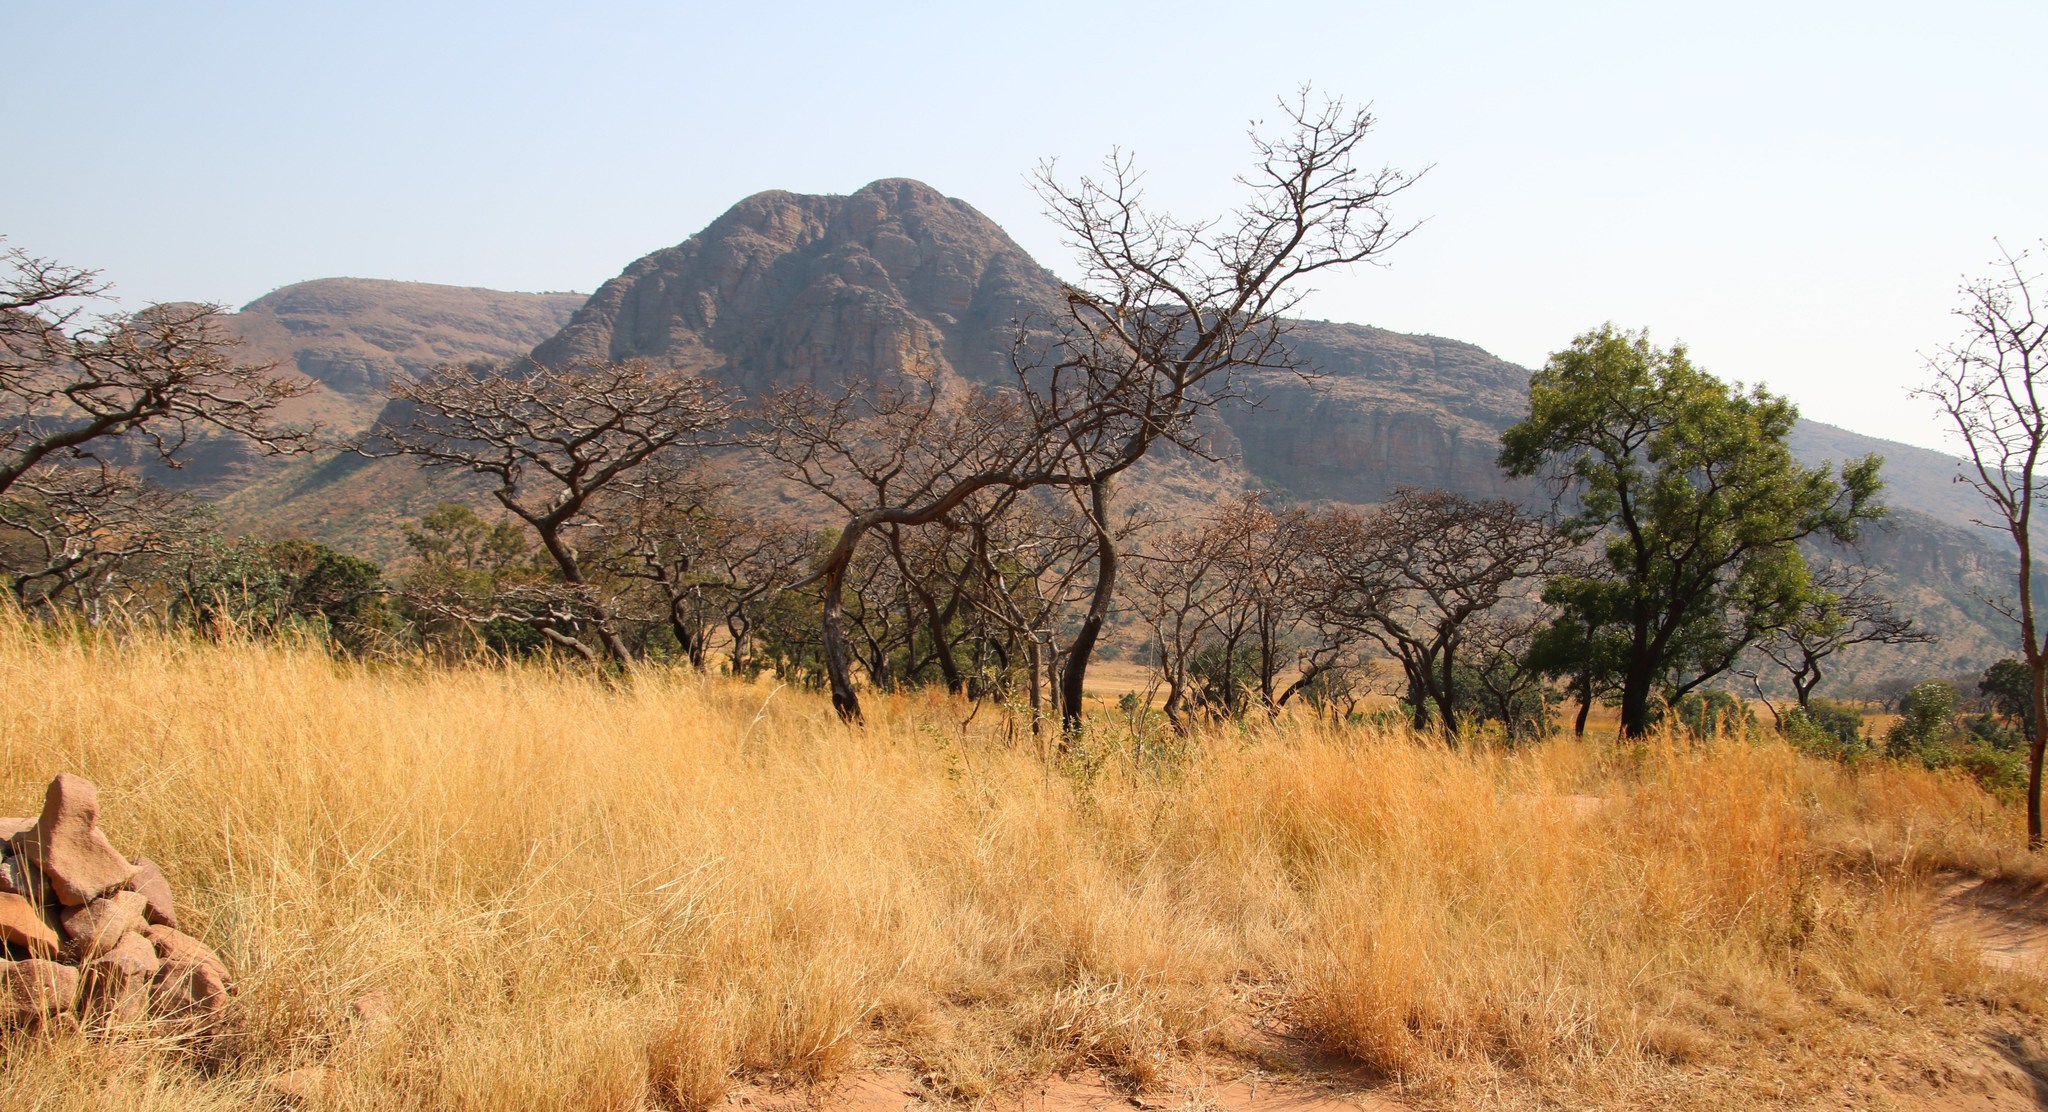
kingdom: Plantae
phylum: Tracheophyta
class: Magnoliopsida
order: Fabales
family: Fabaceae
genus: Burkea
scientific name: Burkea africana
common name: Mkalati tree
